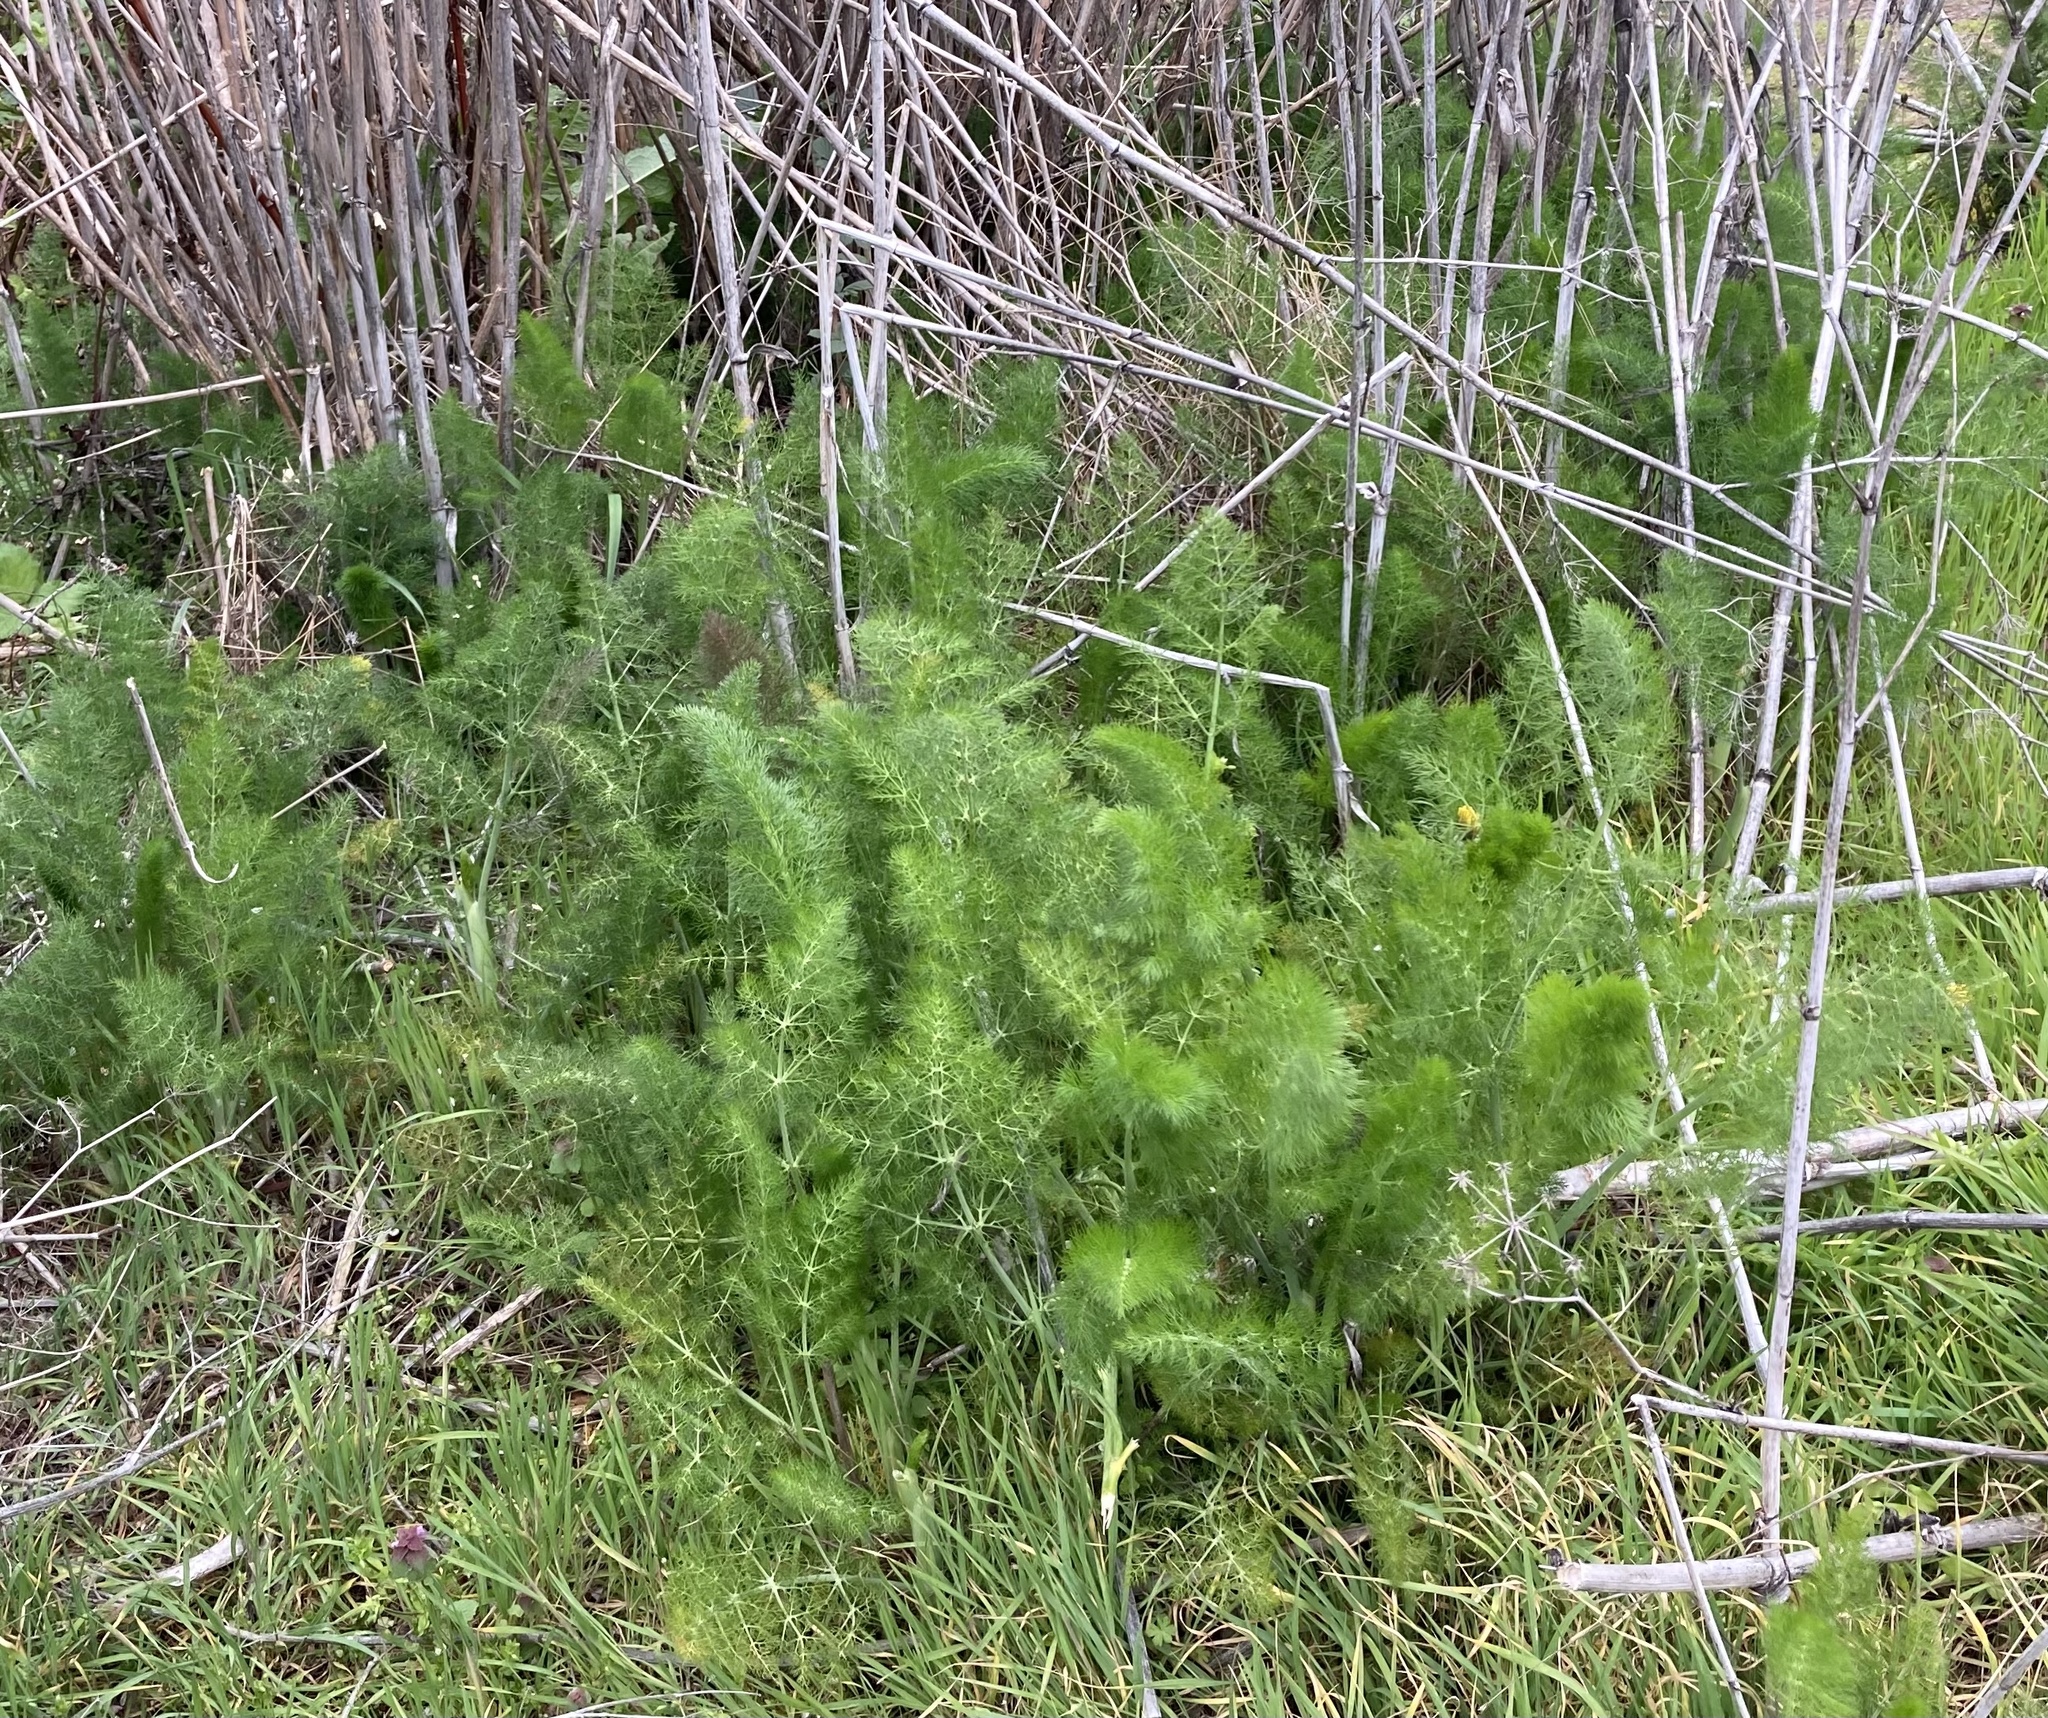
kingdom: Plantae
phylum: Tracheophyta
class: Magnoliopsida
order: Apiales
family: Apiaceae
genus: Foeniculum
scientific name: Foeniculum vulgare
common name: Fennel
